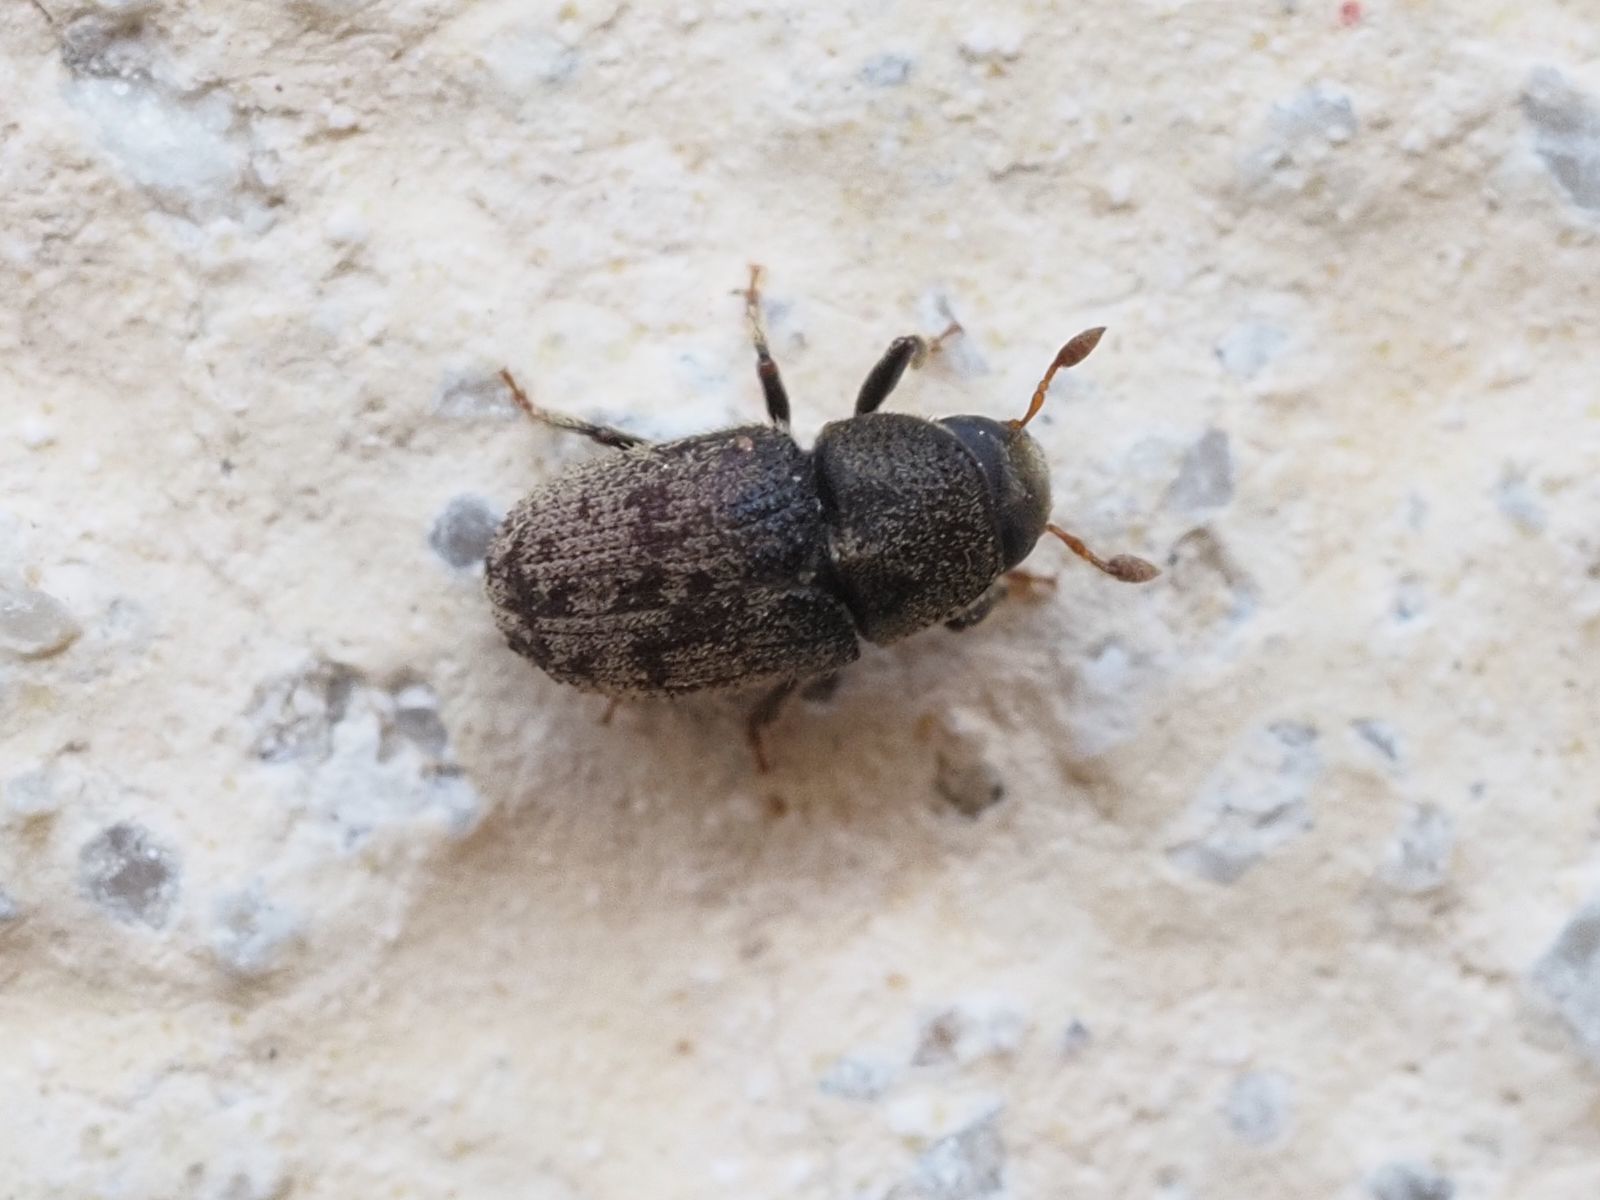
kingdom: Animalia
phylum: Arthropoda
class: Insecta
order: Coleoptera
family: Curculionidae
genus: Hylesinus
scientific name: Hylesinus varius
